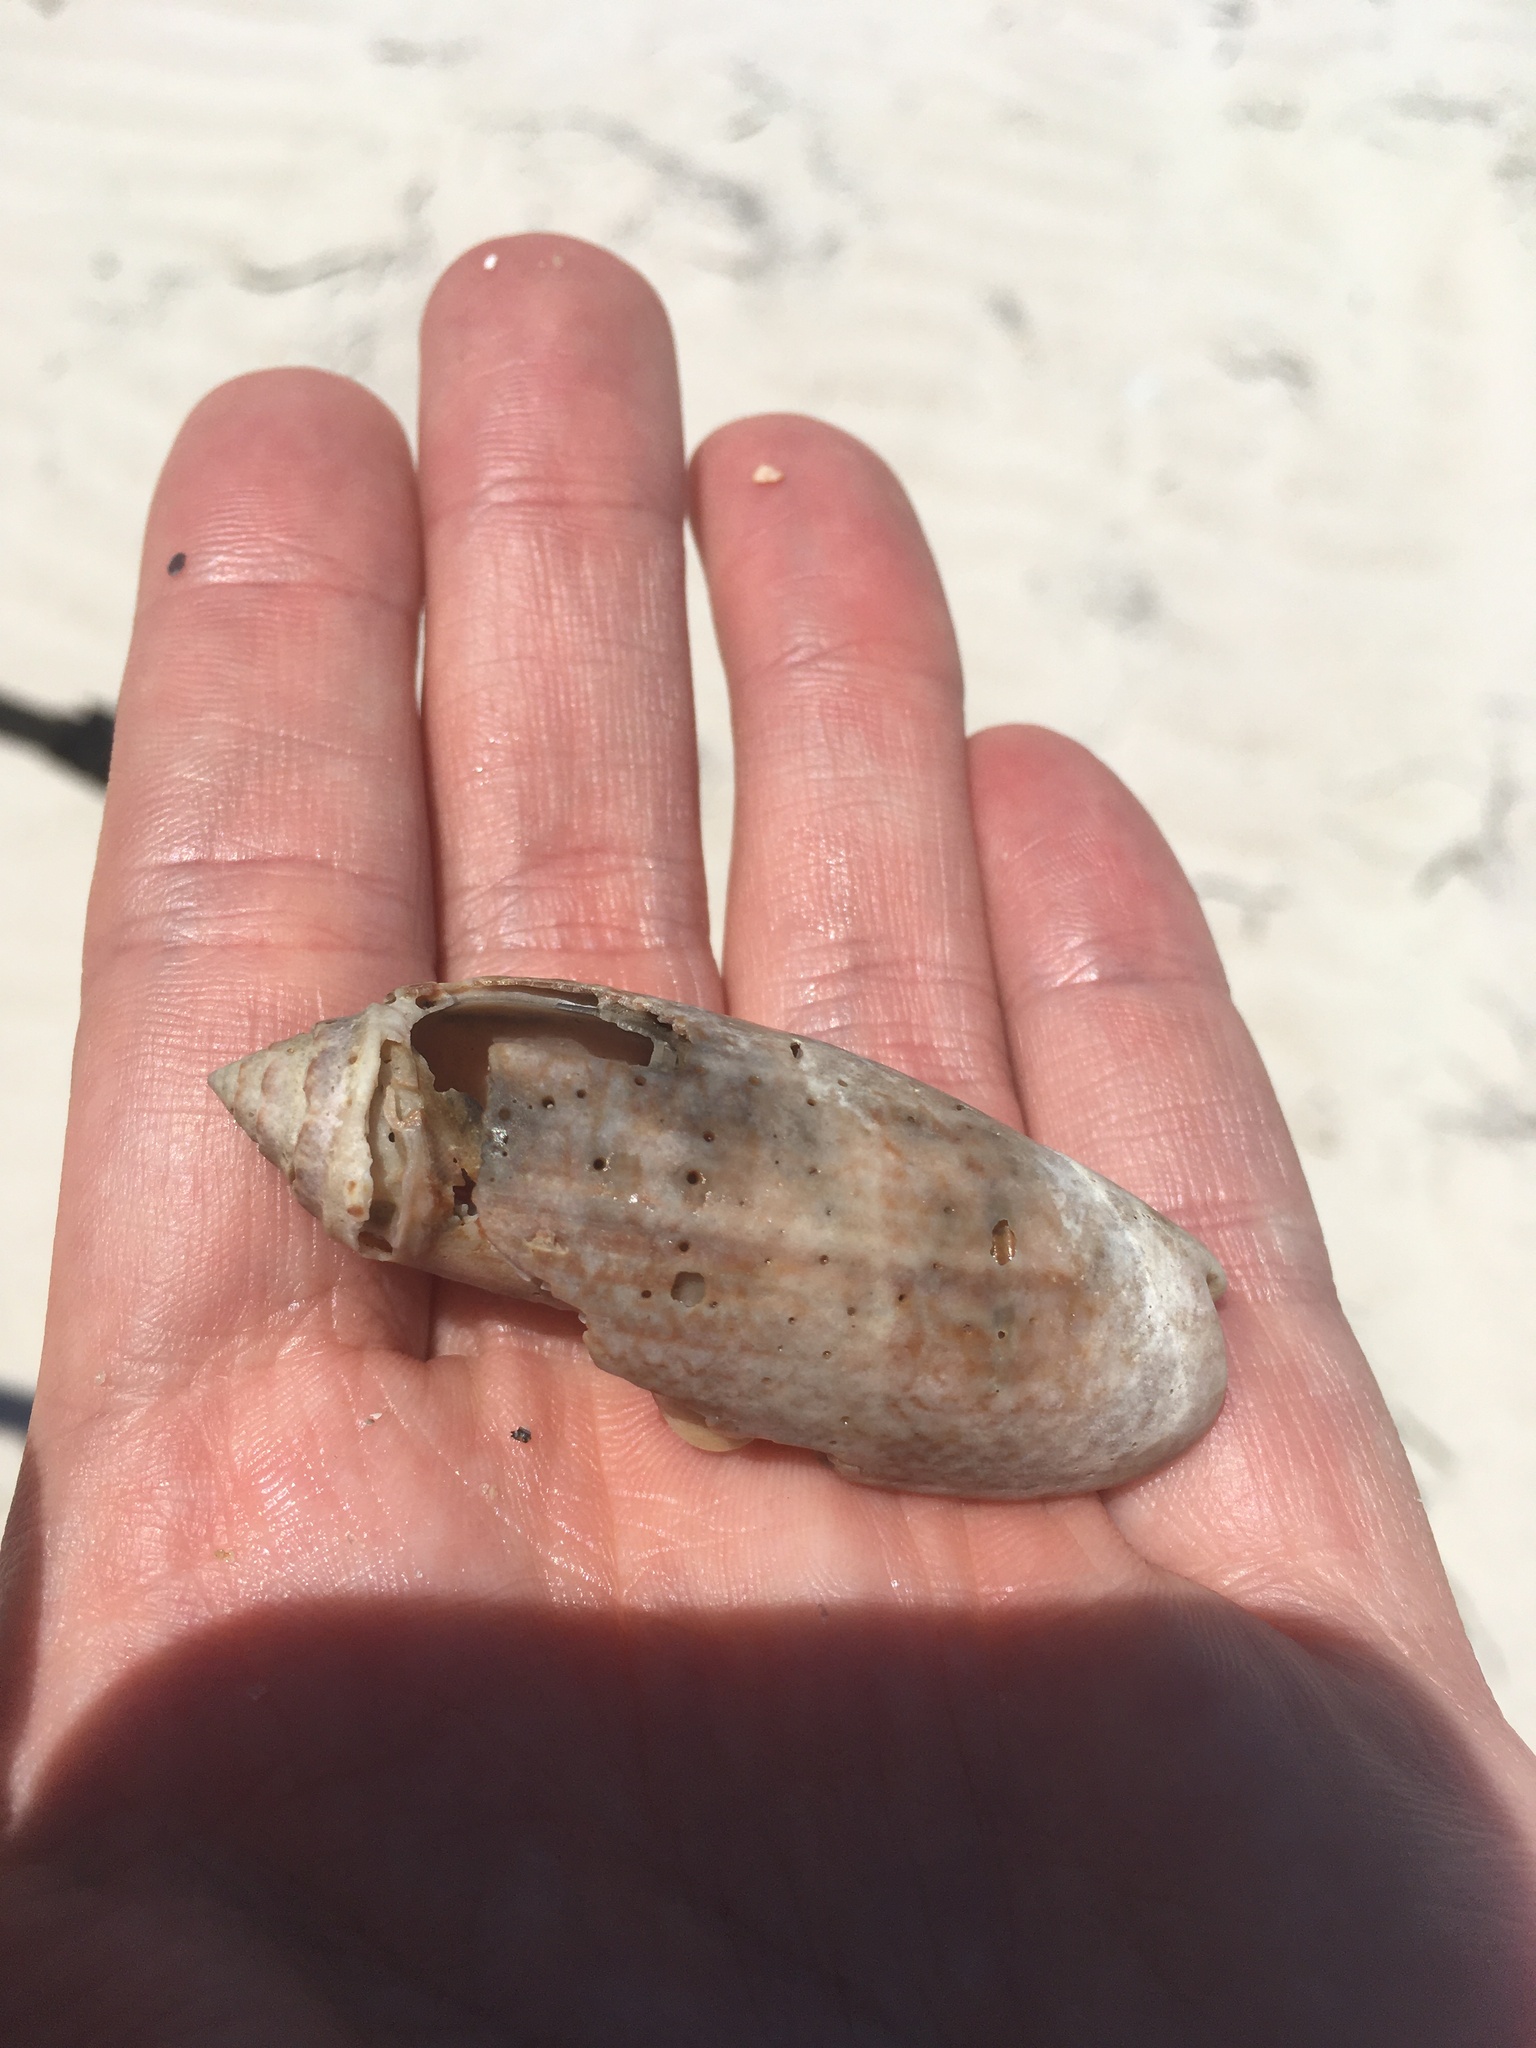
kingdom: Animalia
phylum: Mollusca
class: Gastropoda
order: Neogastropoda
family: Olividae
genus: Oliva
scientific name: Oliva sayana
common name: Lettered olive
